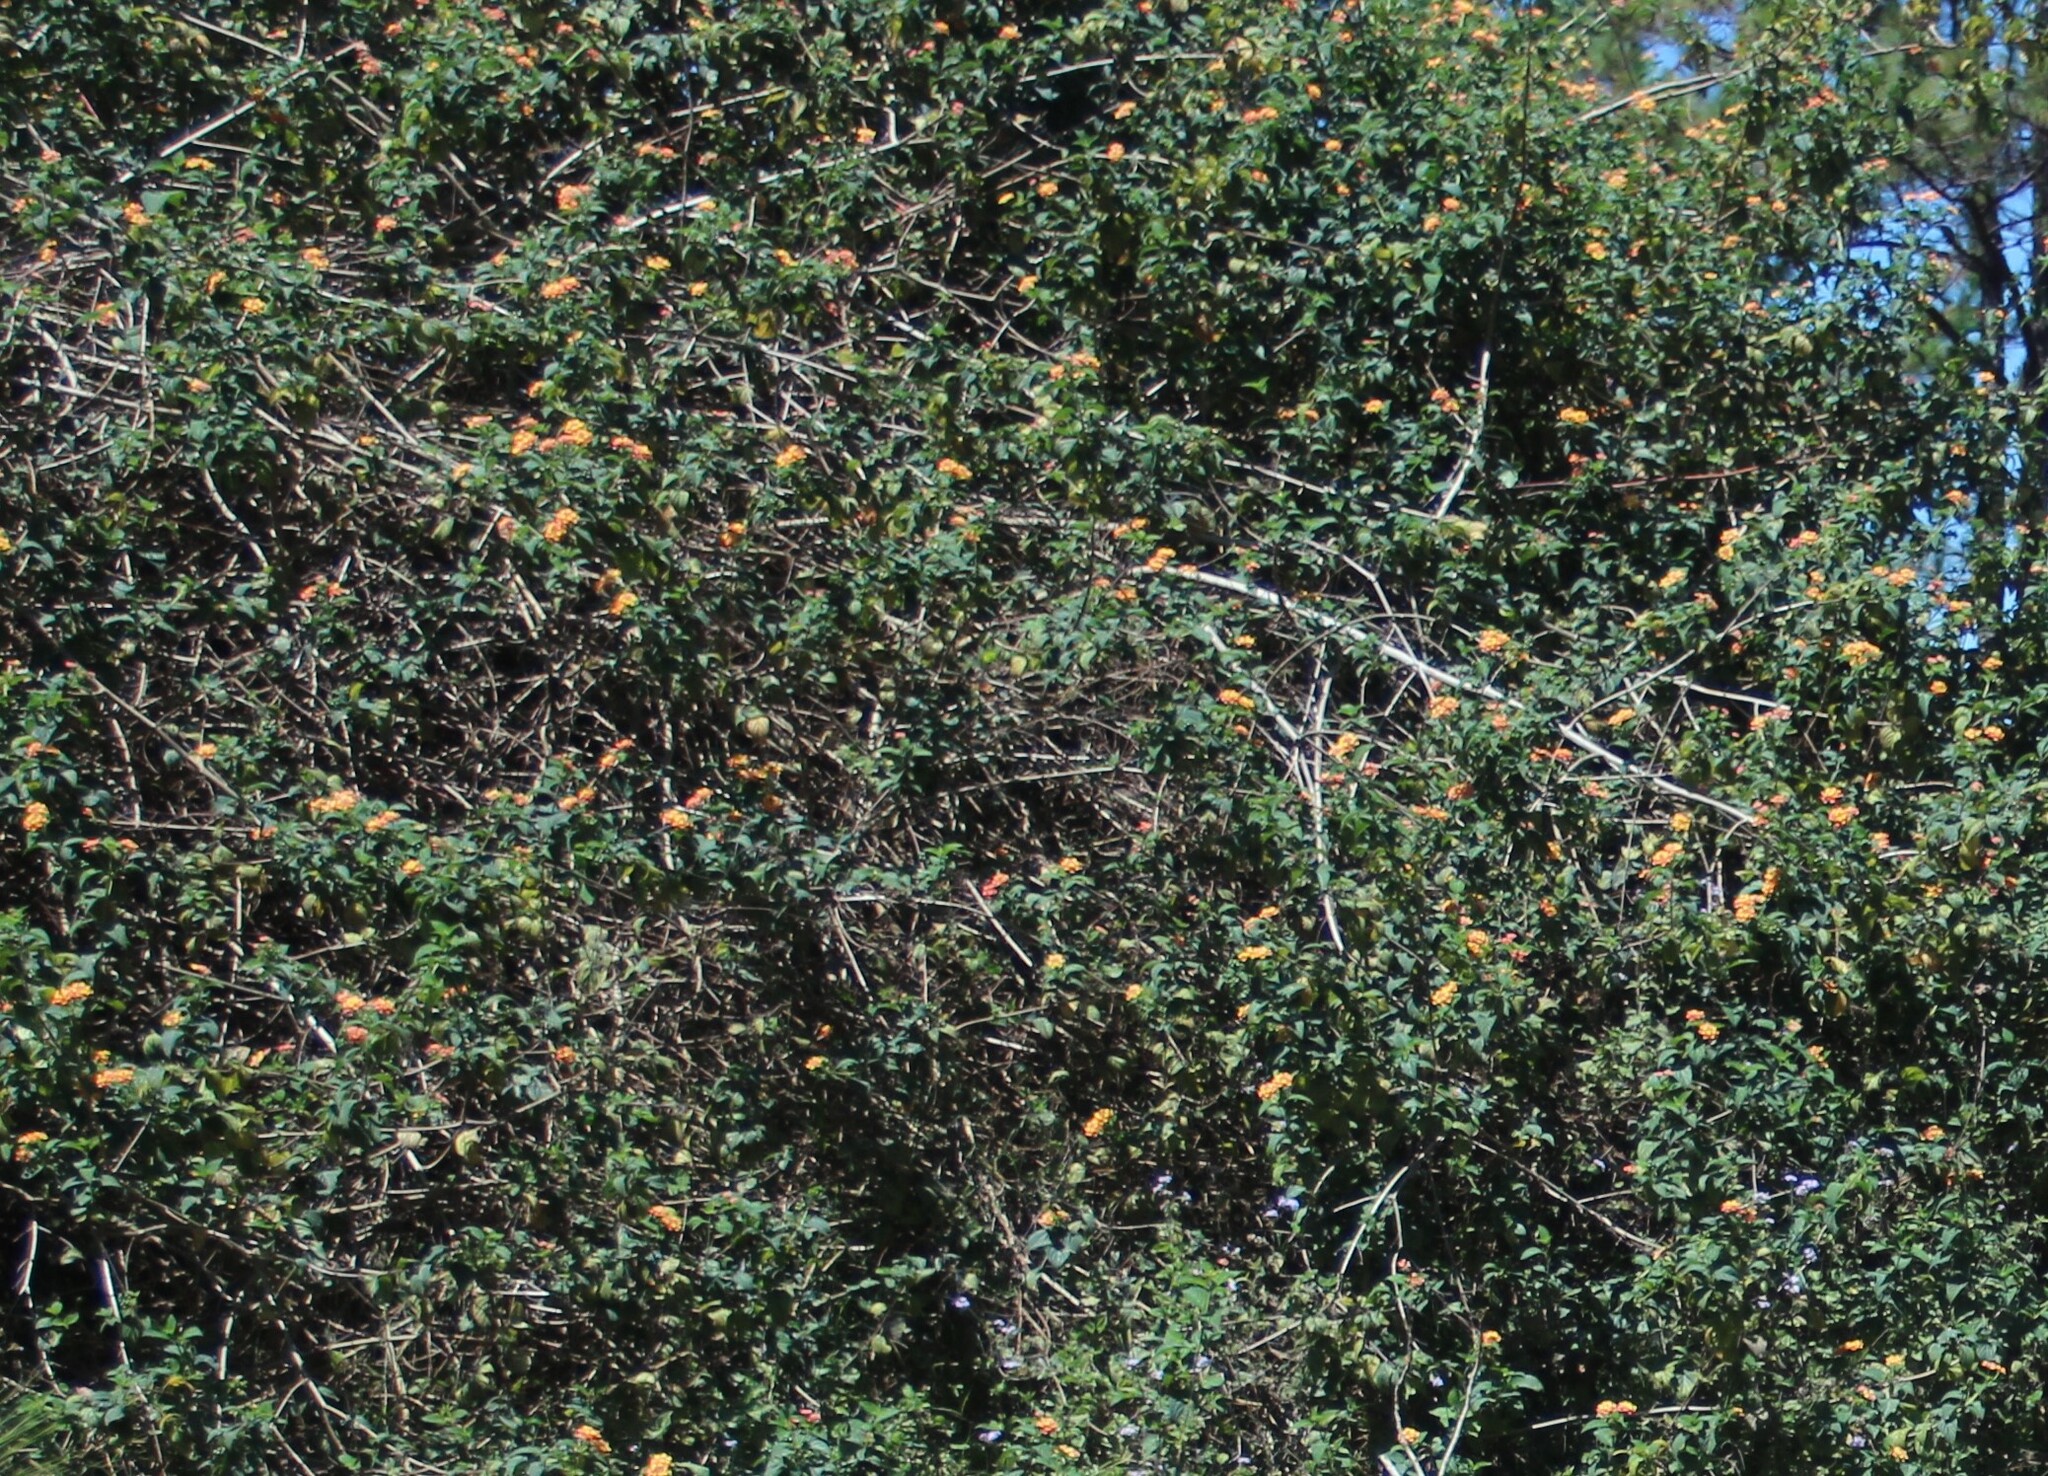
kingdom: Plantae
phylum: Tracheophyta
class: Magnoliopsida
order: Lamiales
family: Verbenaceae
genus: Lantana
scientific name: Lantana camara
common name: Lantana
